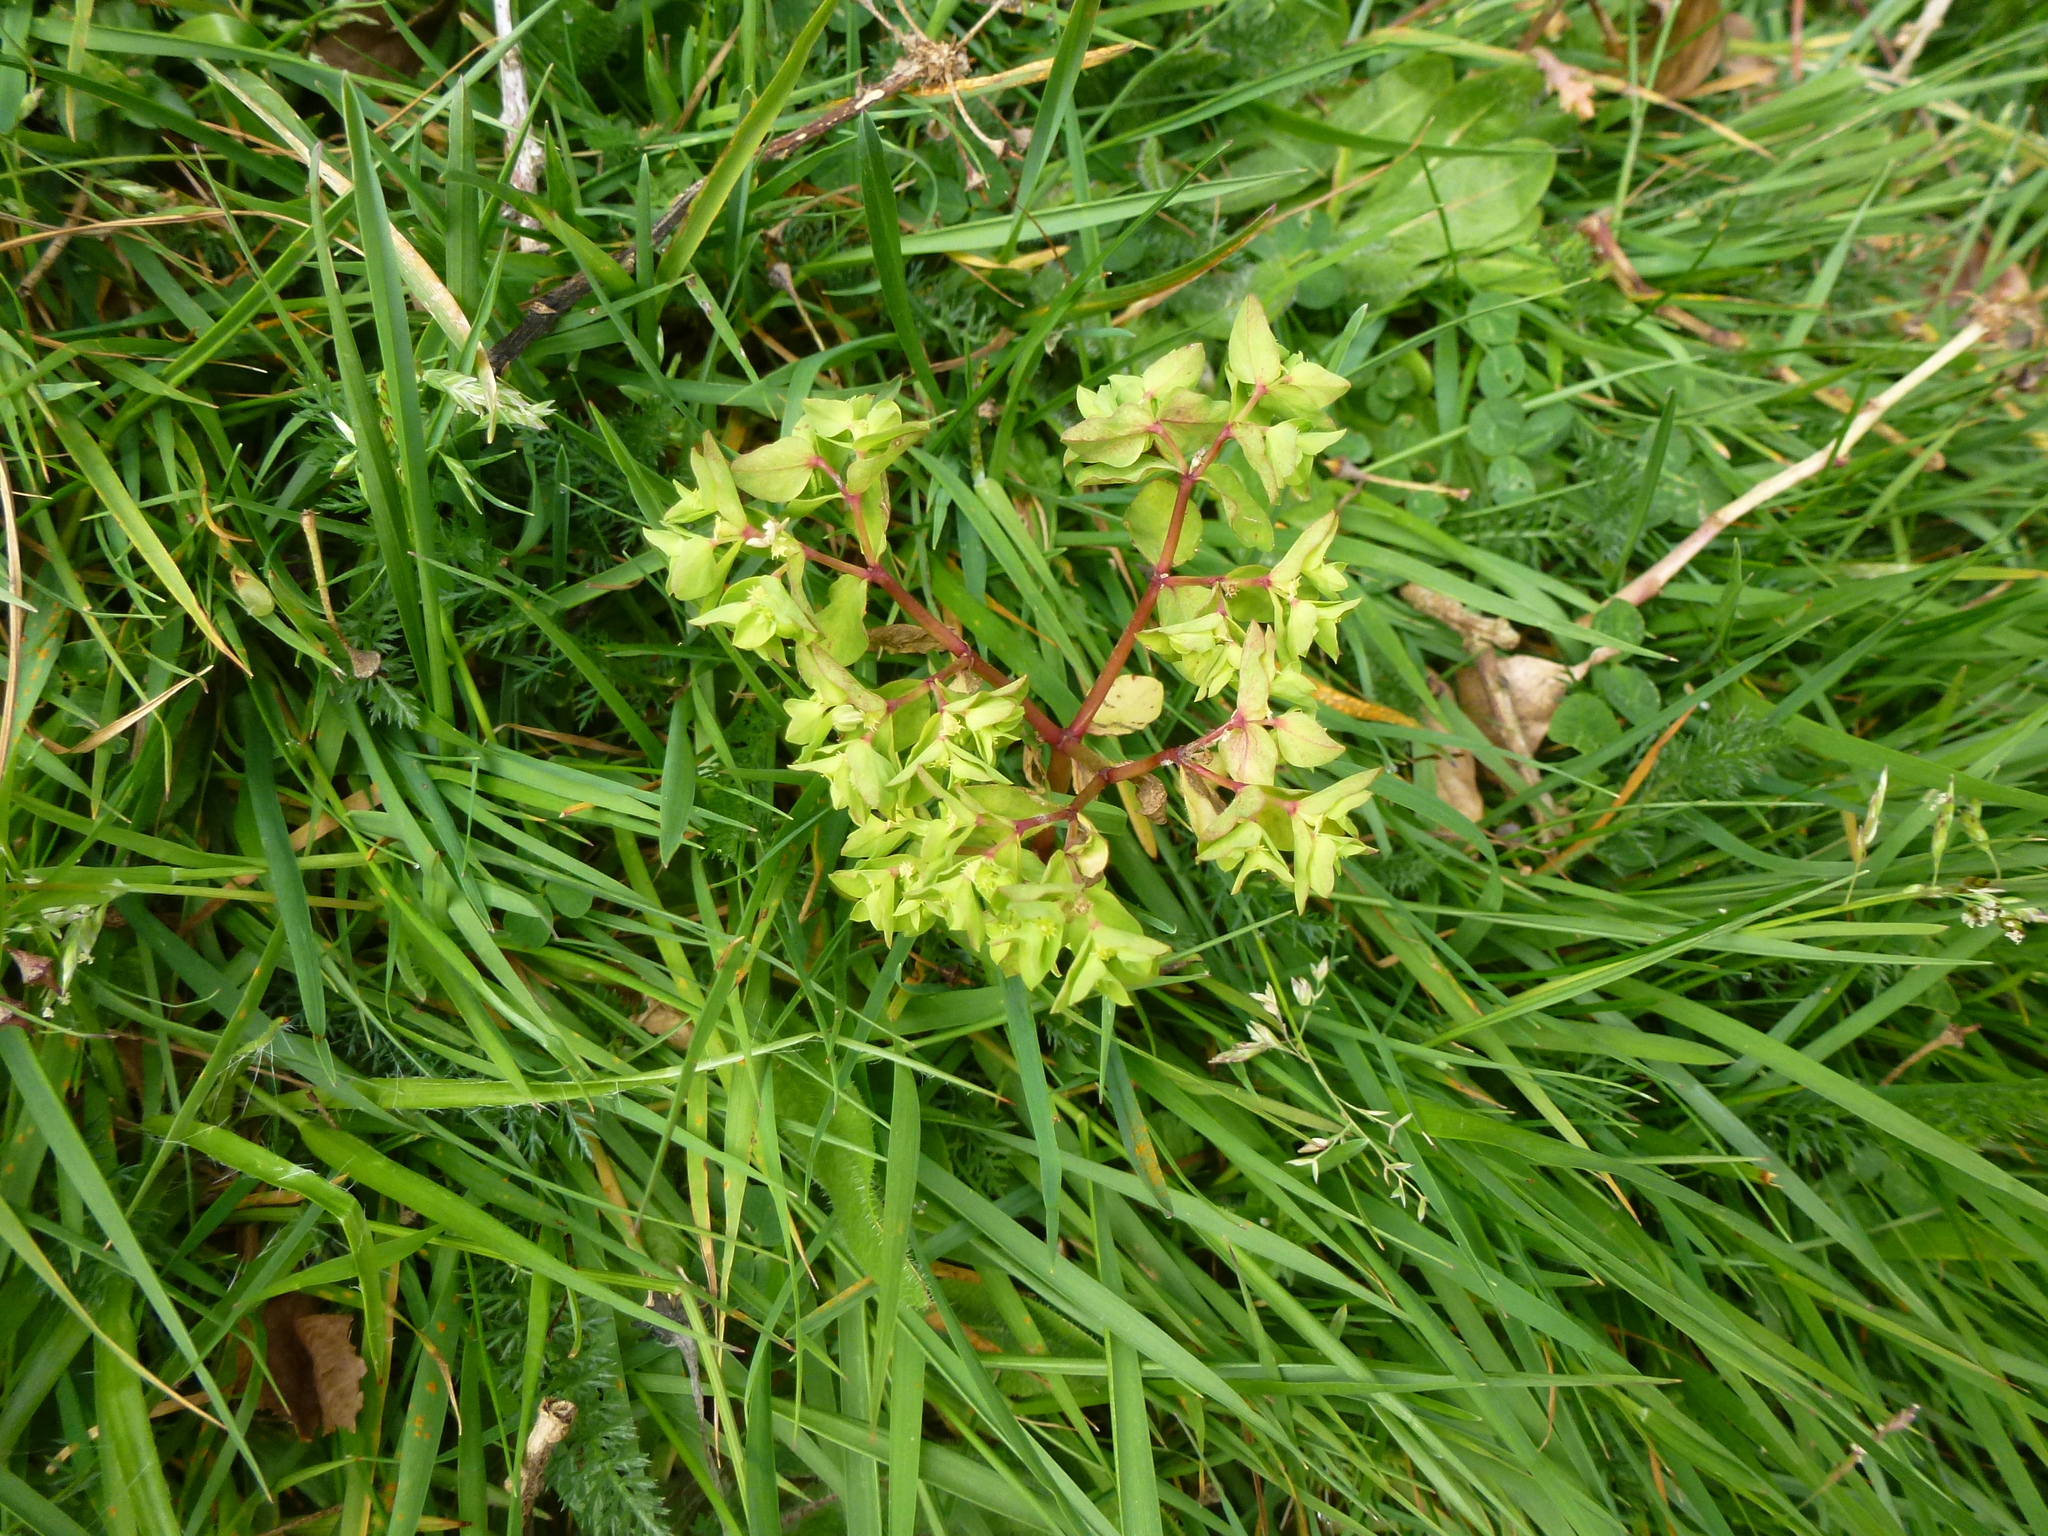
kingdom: Plantae
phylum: Tracheophyta
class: Magnoliopsida
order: Malpighiales
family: Euphorbiaceae
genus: Euphorbia
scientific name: Euphorbia peplus
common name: Petty spurge
